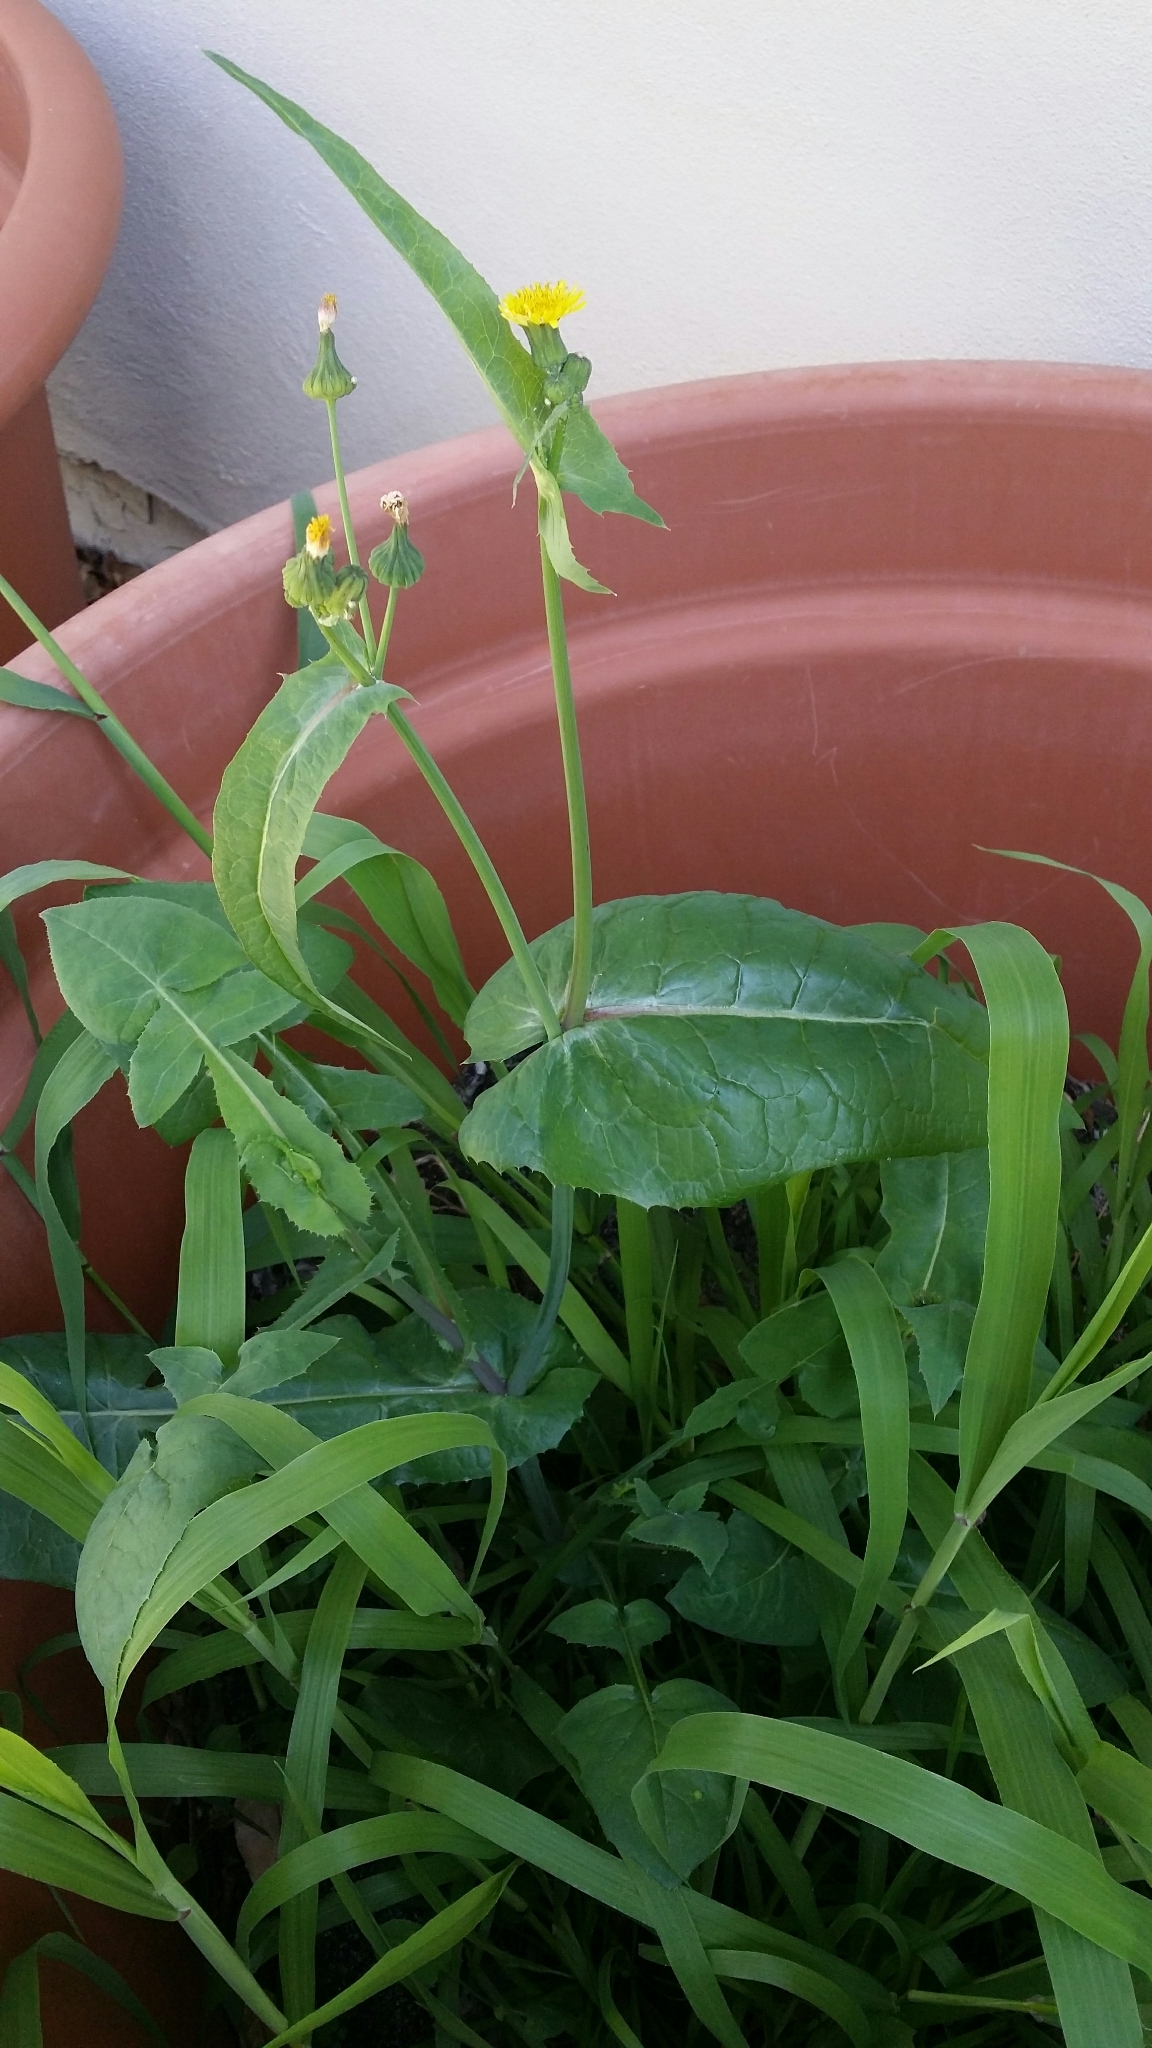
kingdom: Plantae
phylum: Tracheophyta
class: Magnoliopsida
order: Asterales
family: Asteraceae
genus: Sonchus
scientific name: Sonchus oleraceus
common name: Common sowthistle
